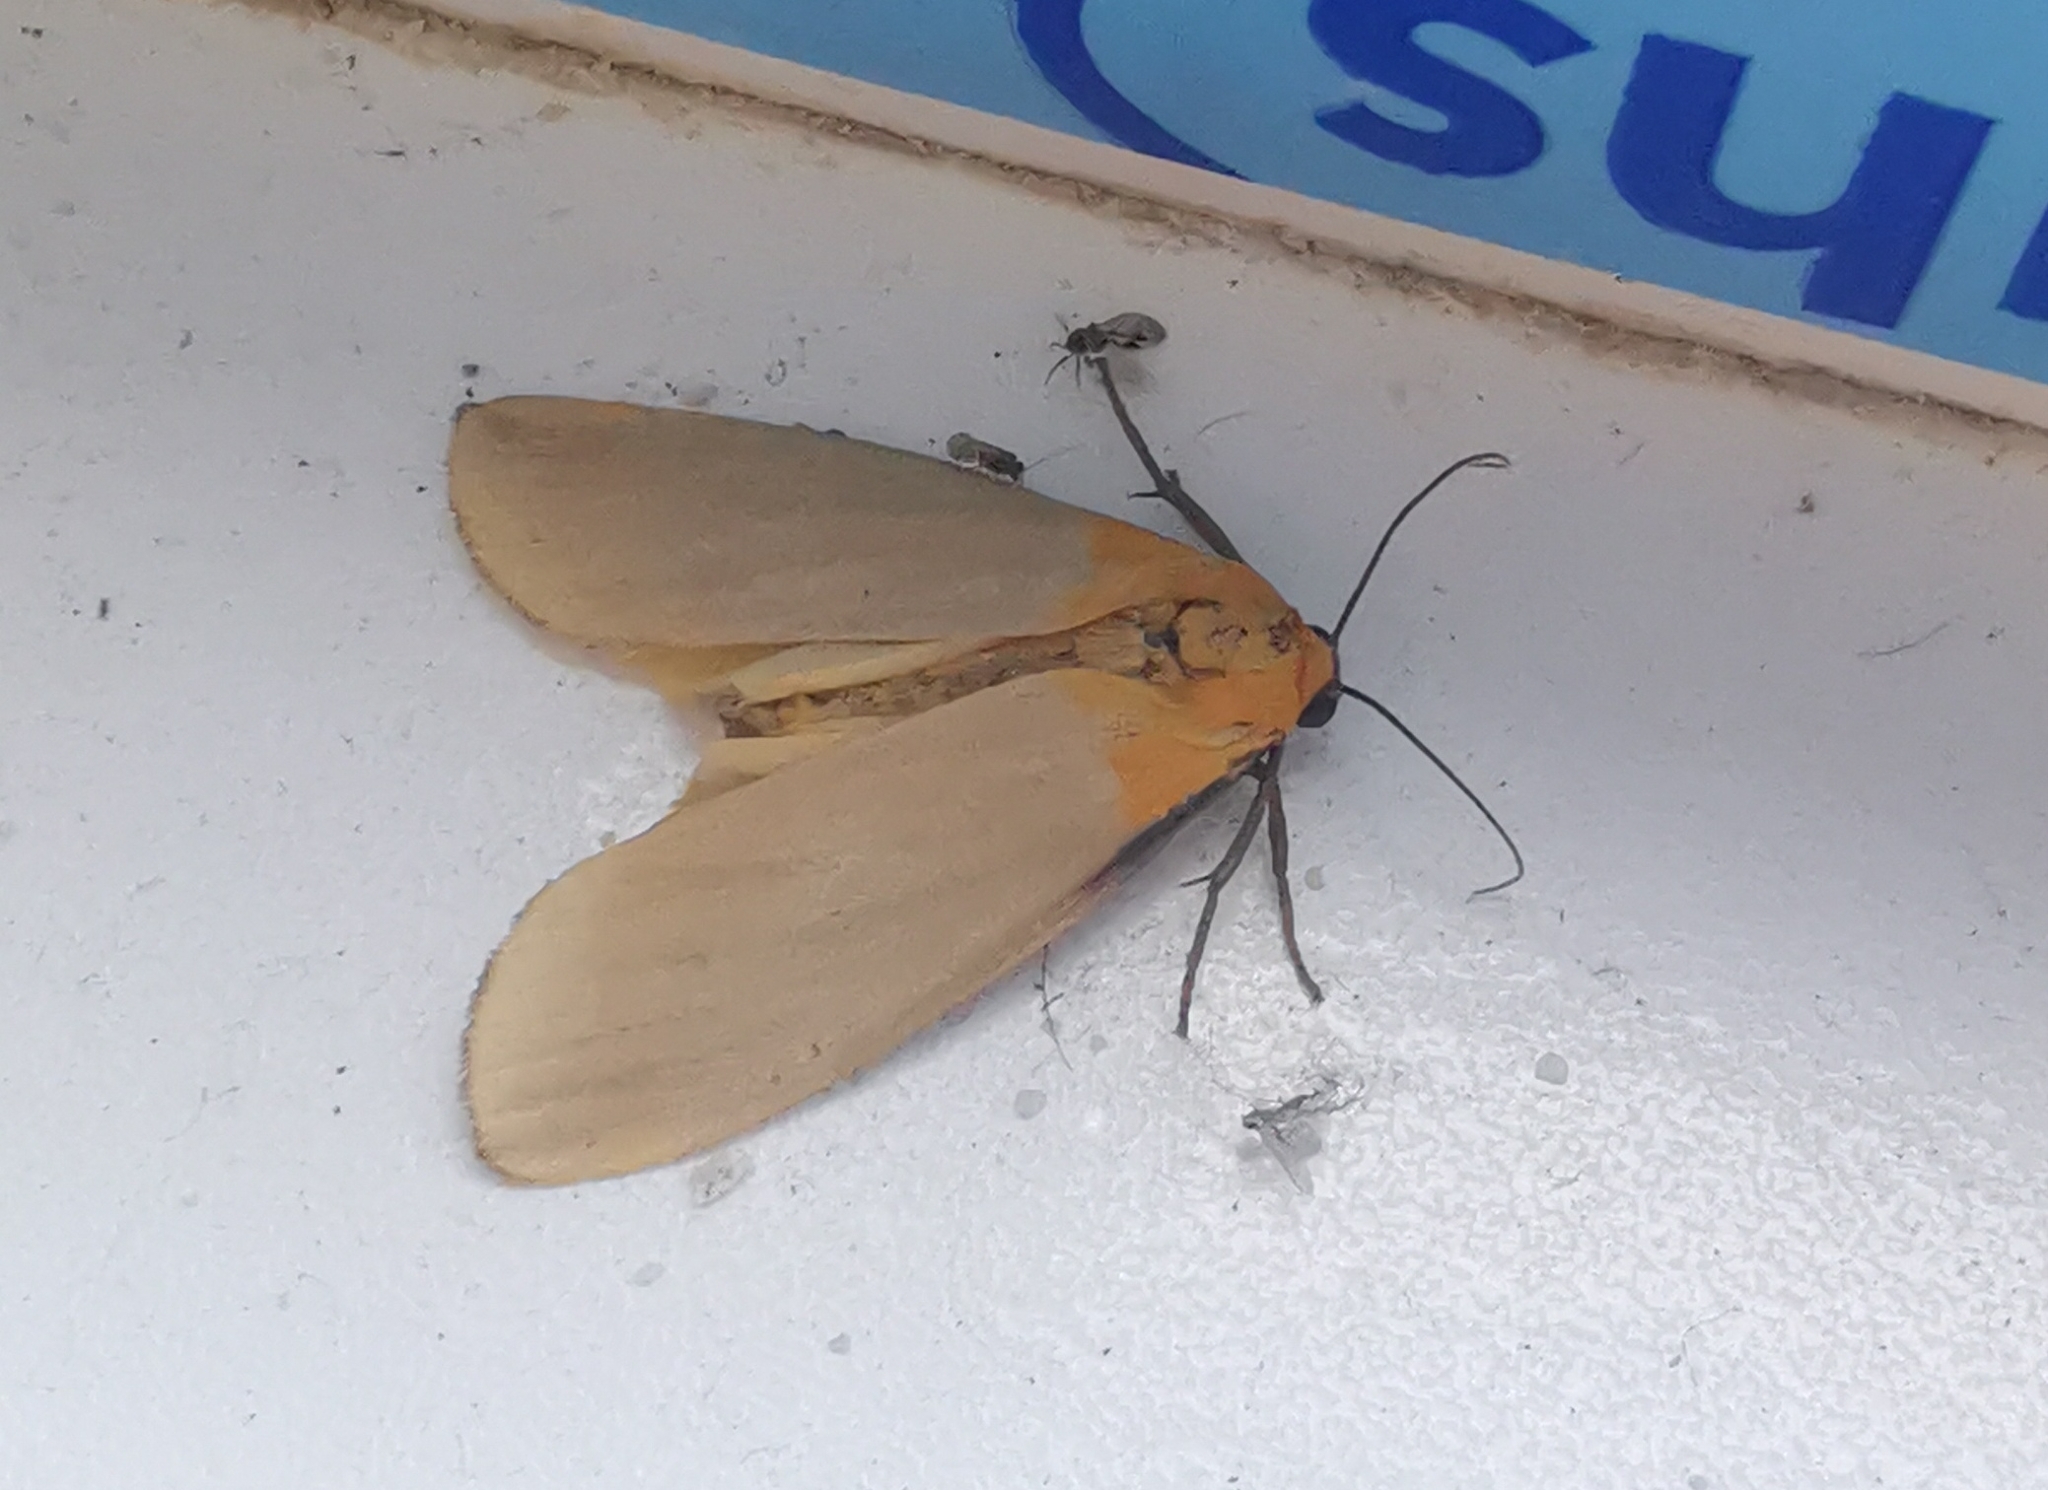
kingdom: Animalia
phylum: Arthropoda
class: Insecta
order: Lepidoptera
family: Erebidae
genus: Lithosia
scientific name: Lithosia quadra
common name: Four-spotted footman
